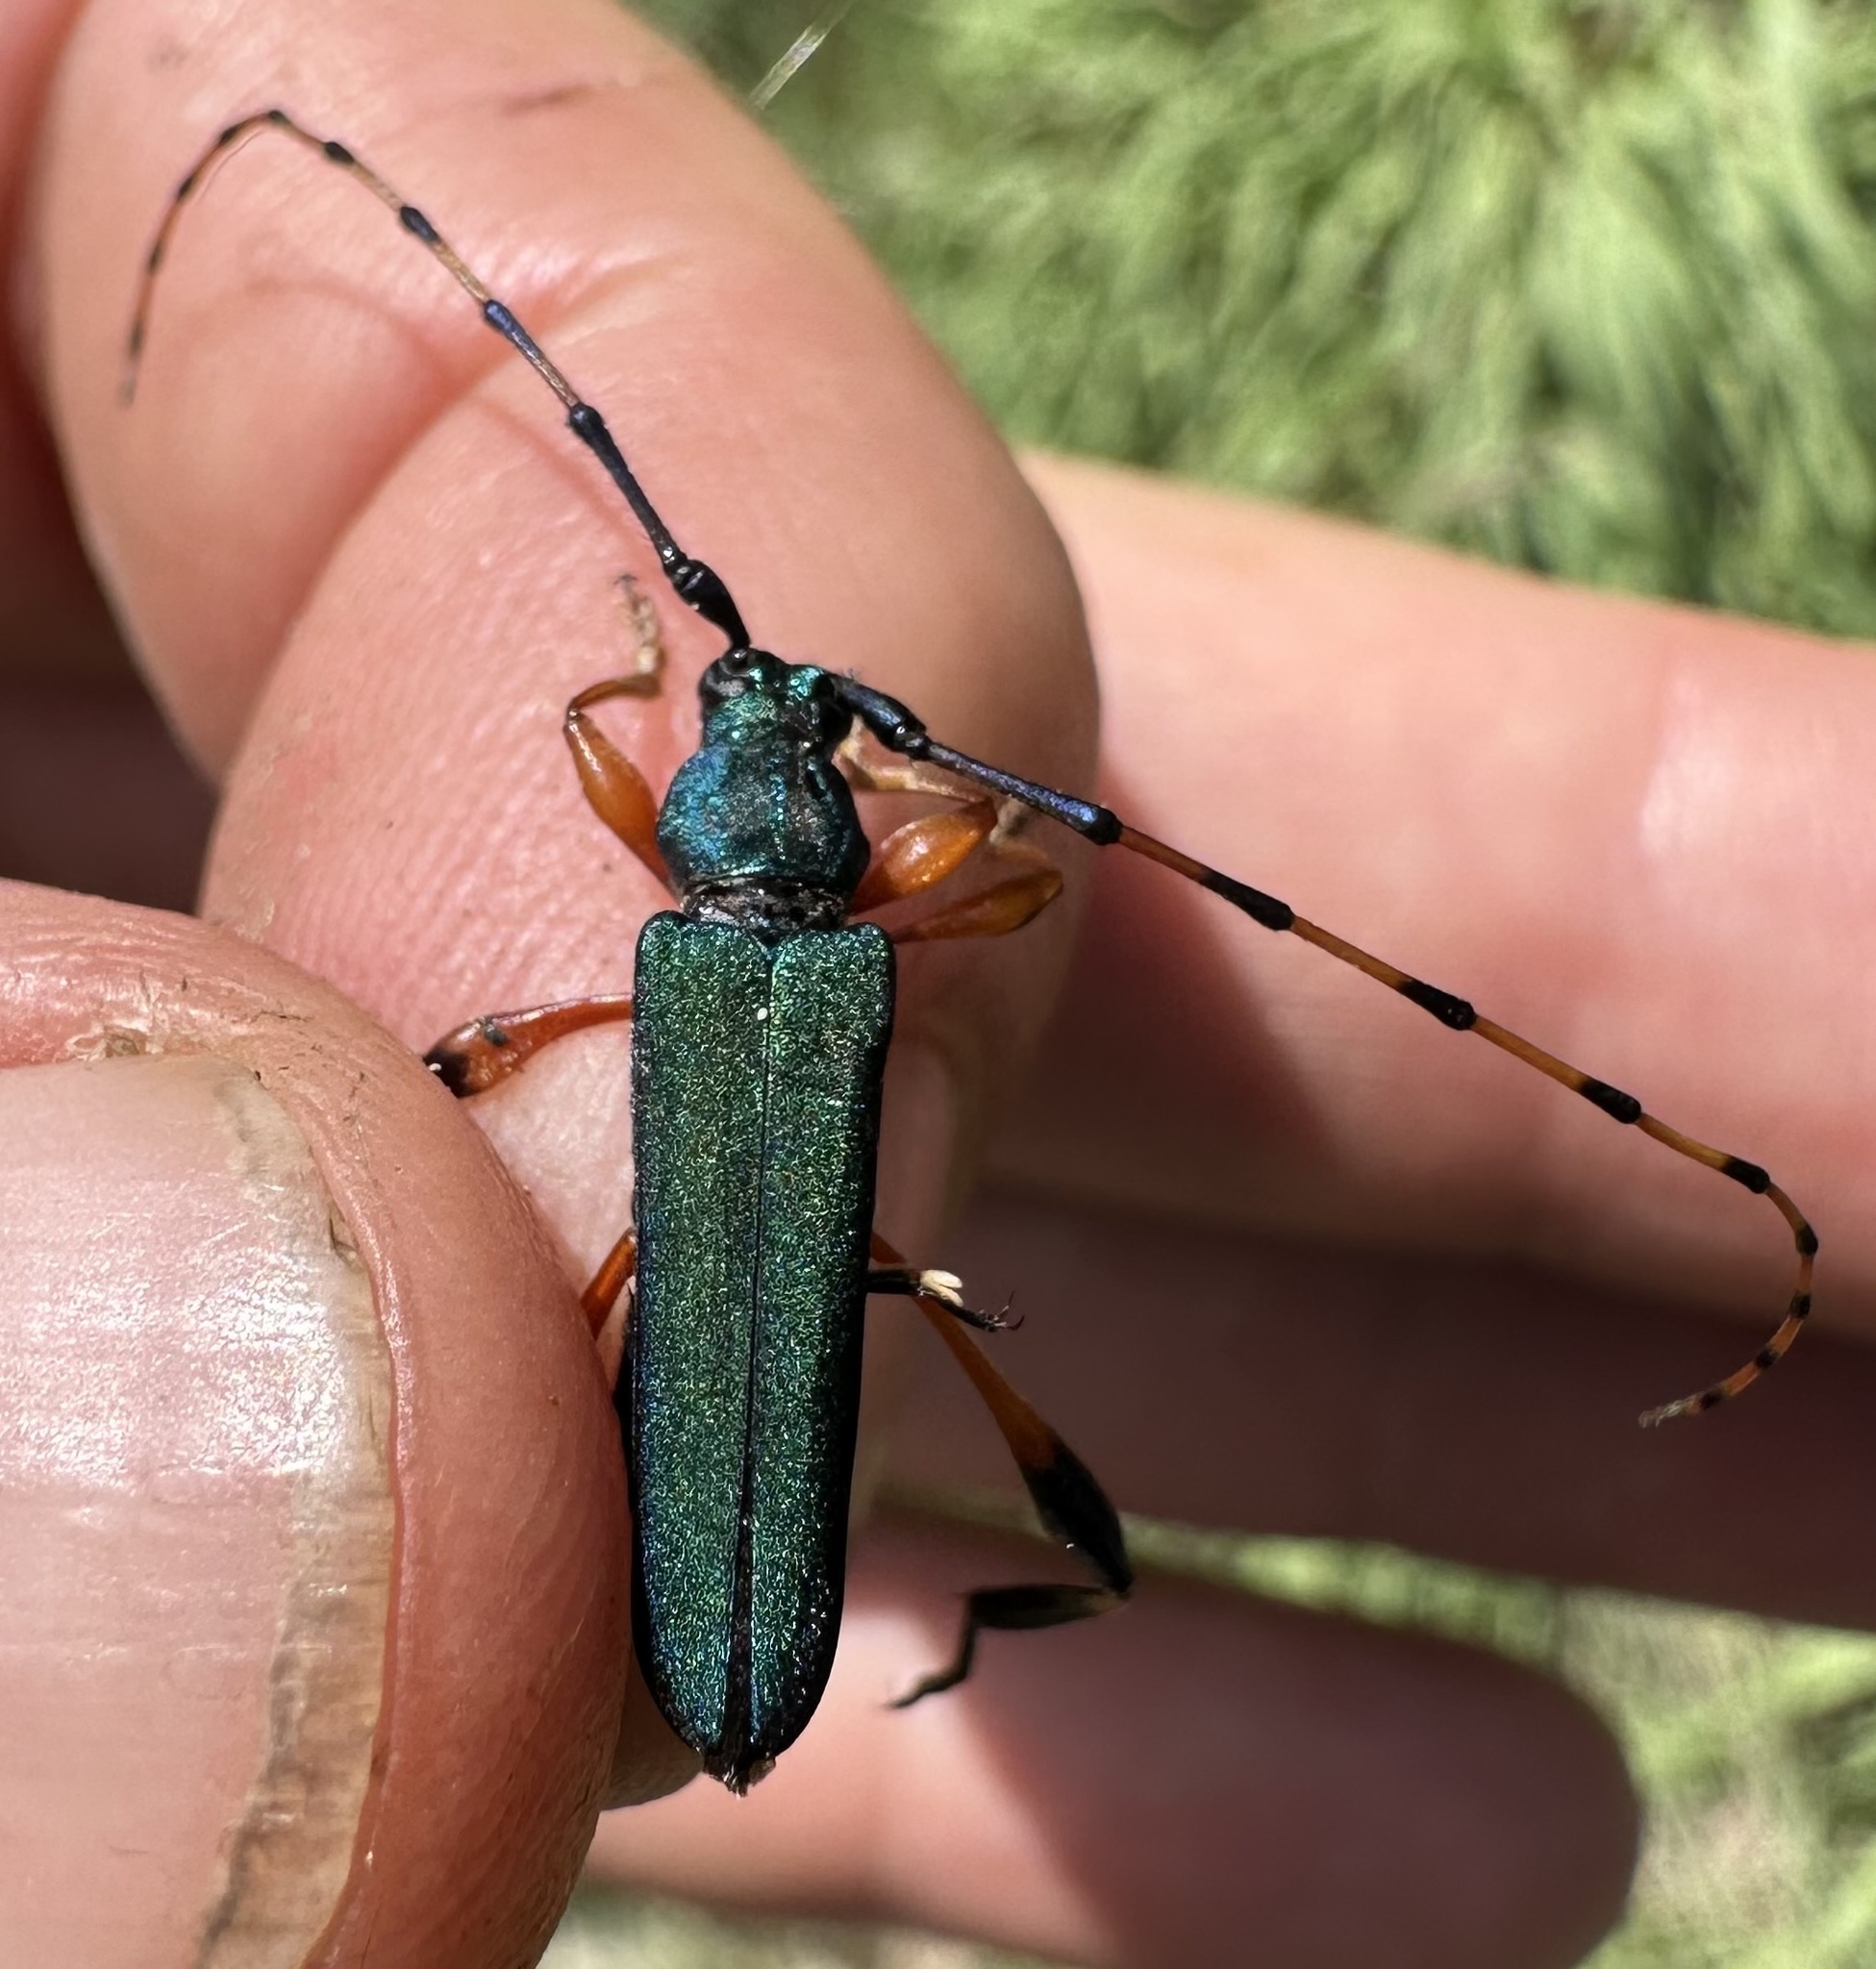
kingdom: Animalia
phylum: Arthropoda
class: Insecta
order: Coleoptera
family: Cerambycidae
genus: Litopus
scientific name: Litopus latipes
